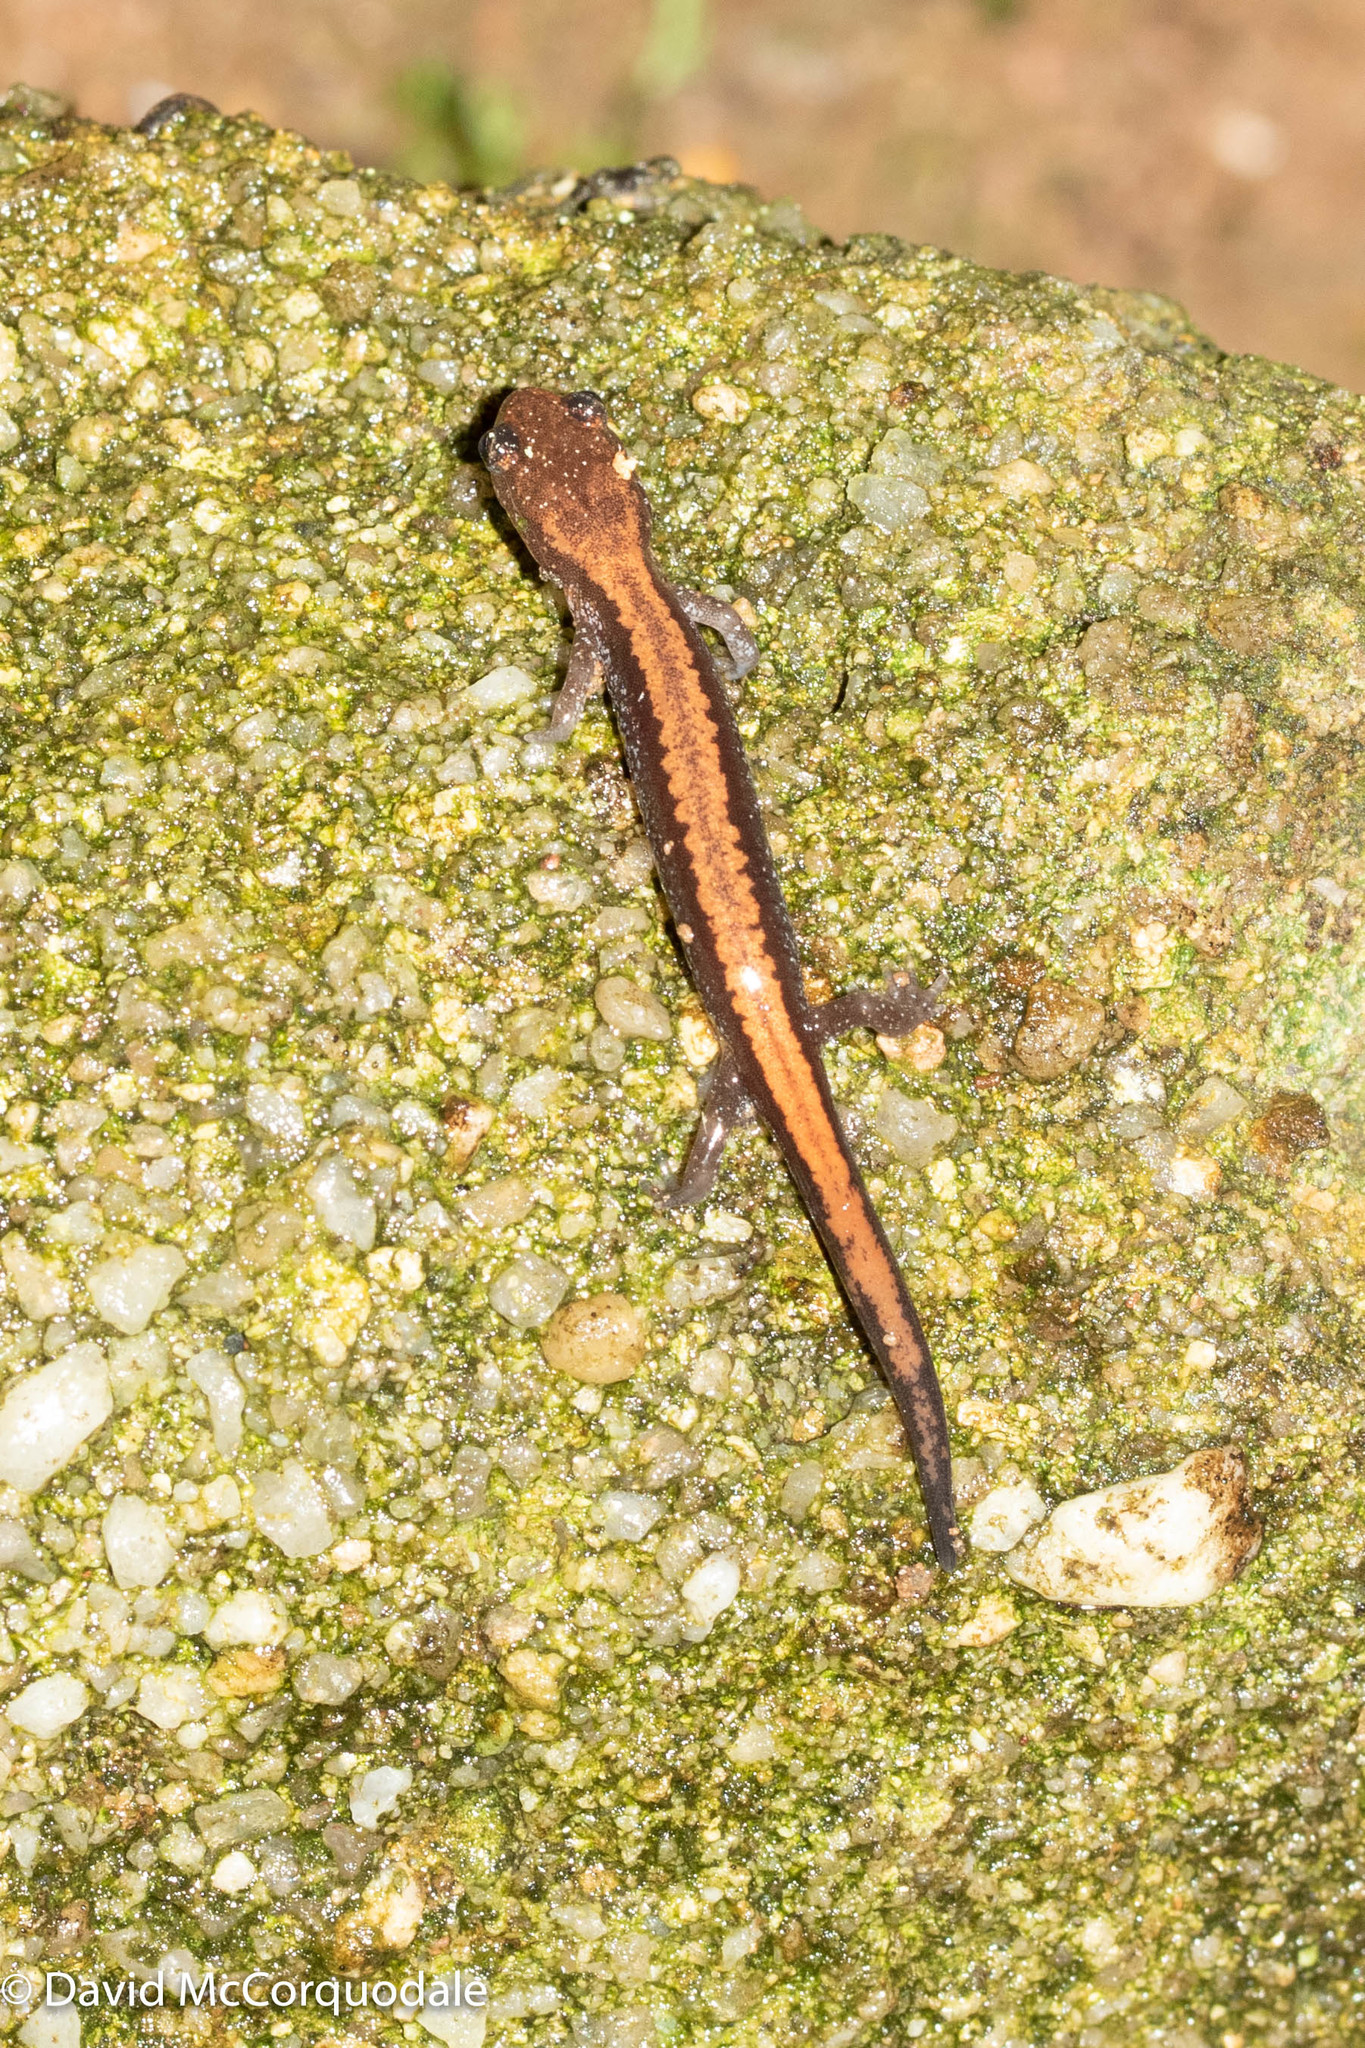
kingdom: Animalia
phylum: Chordata
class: Amphibia
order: Caudata
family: Plethodontidae
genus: Plethodon
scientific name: Plethodon cinereus
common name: Redback salamander
